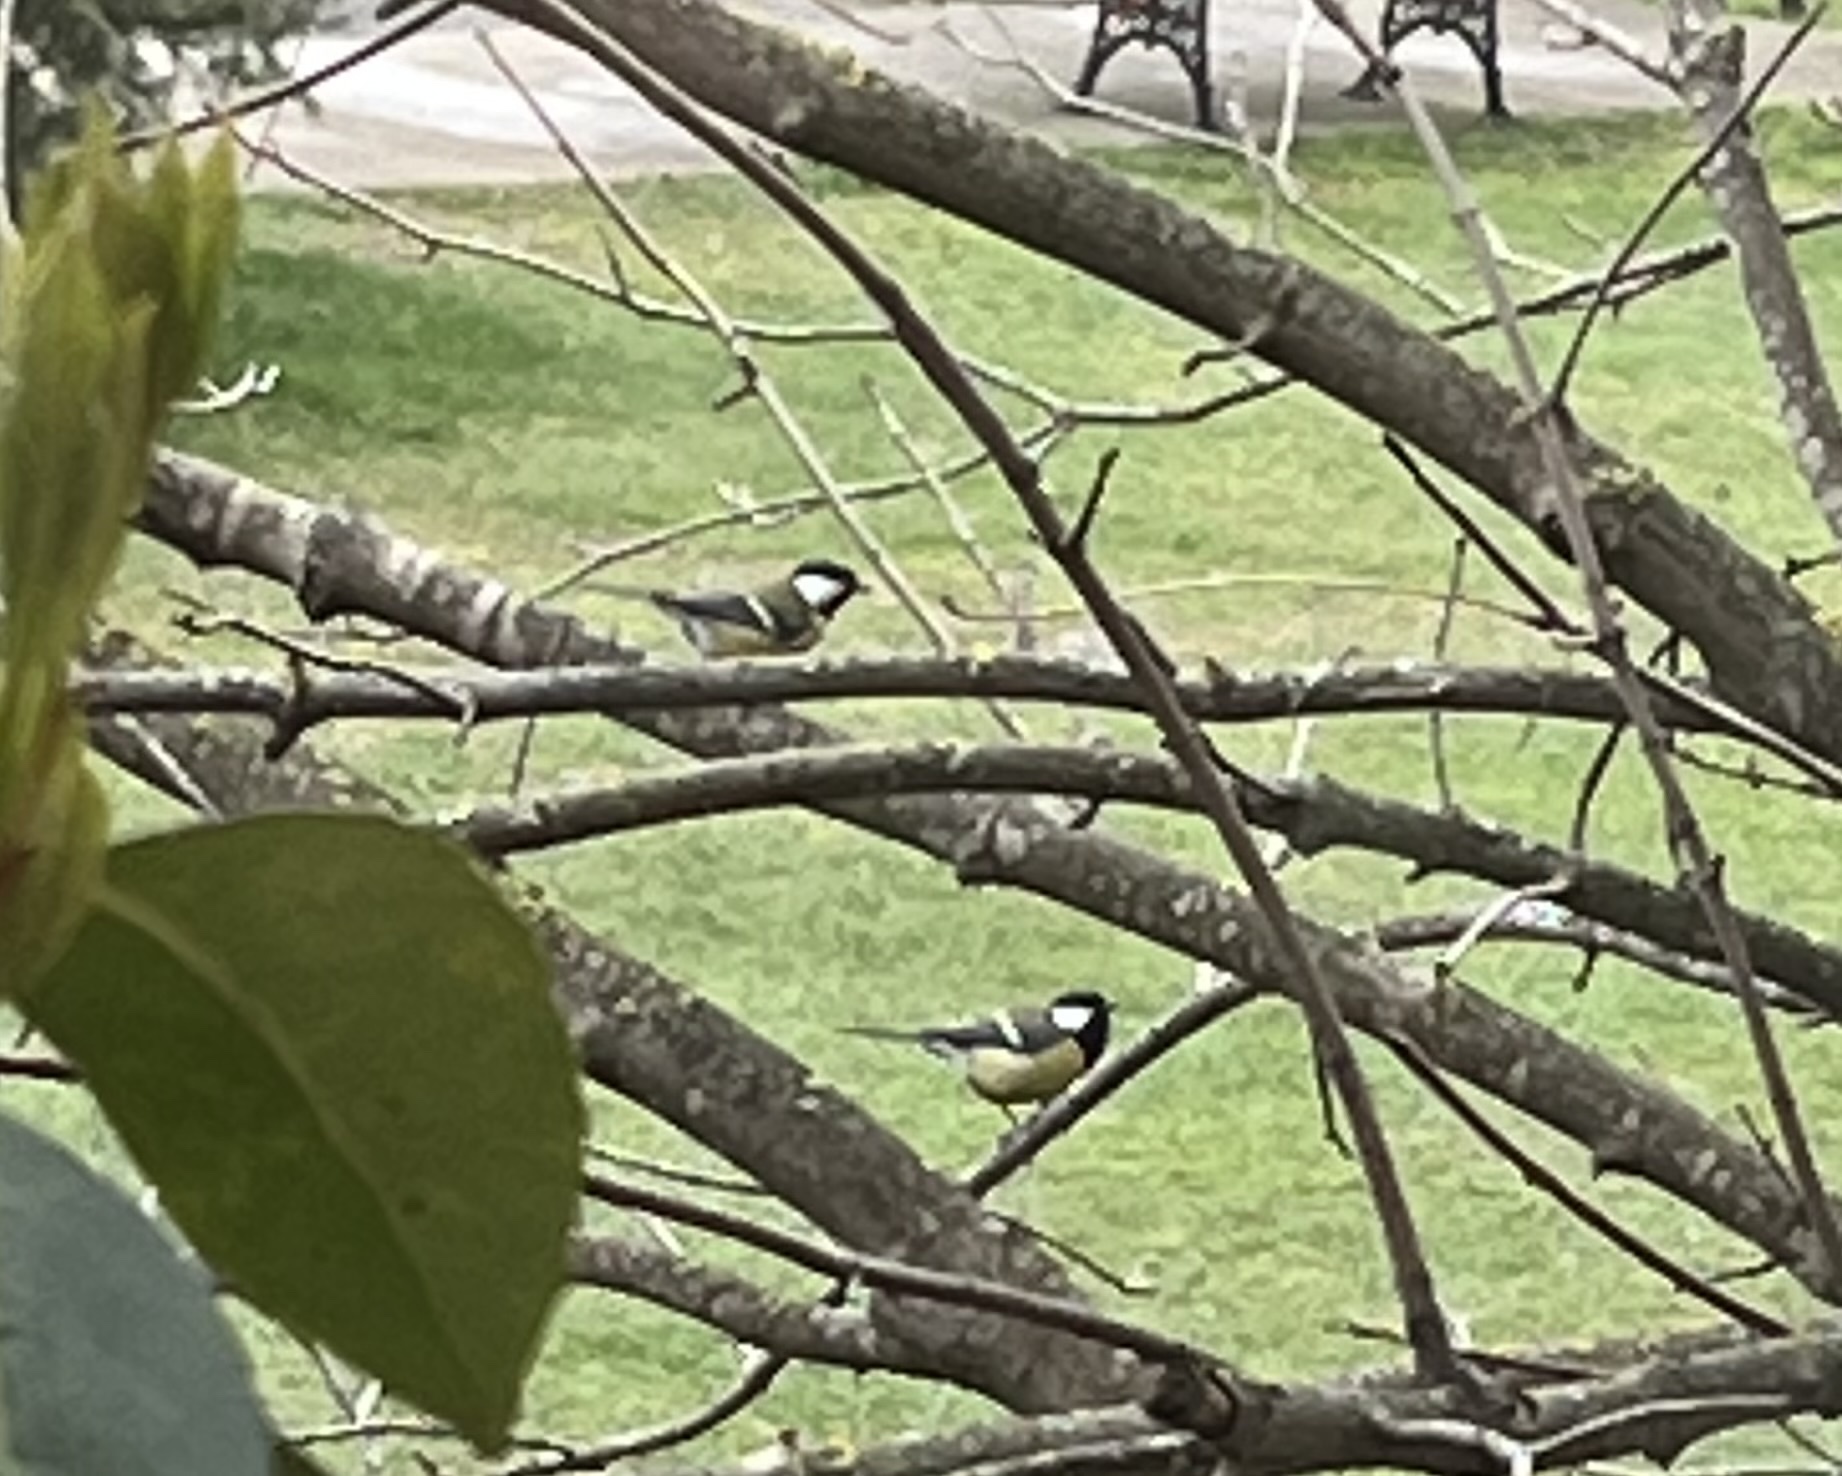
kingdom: Animalia
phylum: Chordata
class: Aves
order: Passeriformes
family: Paridae
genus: Parus
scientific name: Parus major
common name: Great tit
